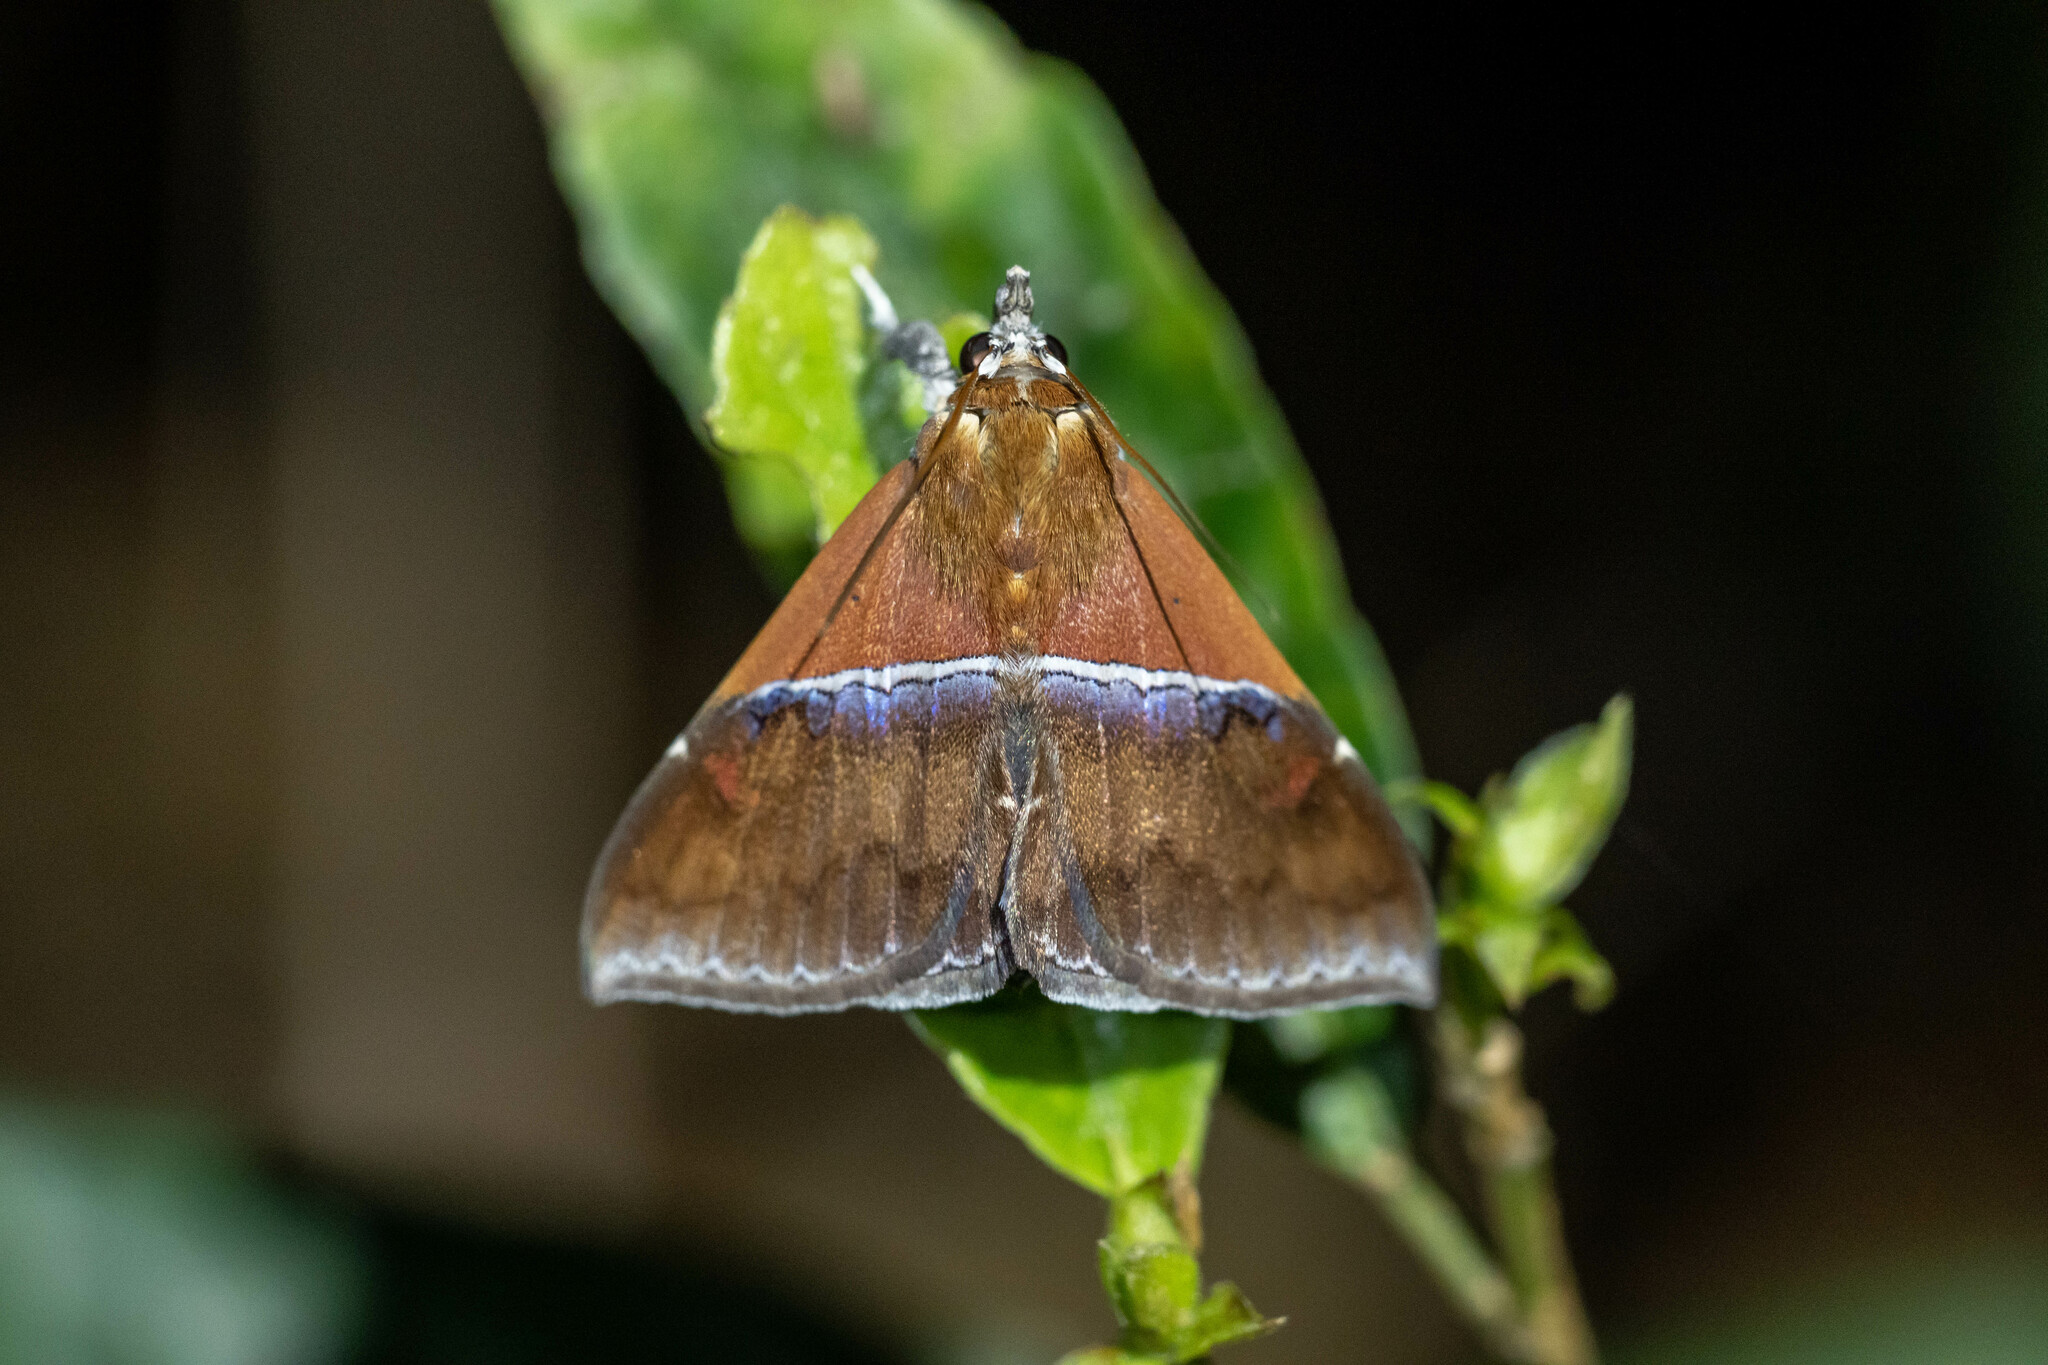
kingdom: Animalia
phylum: Arthropoda
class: Insecta
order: Lepidoptera
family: Erebidae
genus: Sympis
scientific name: Sympis rufibasis
